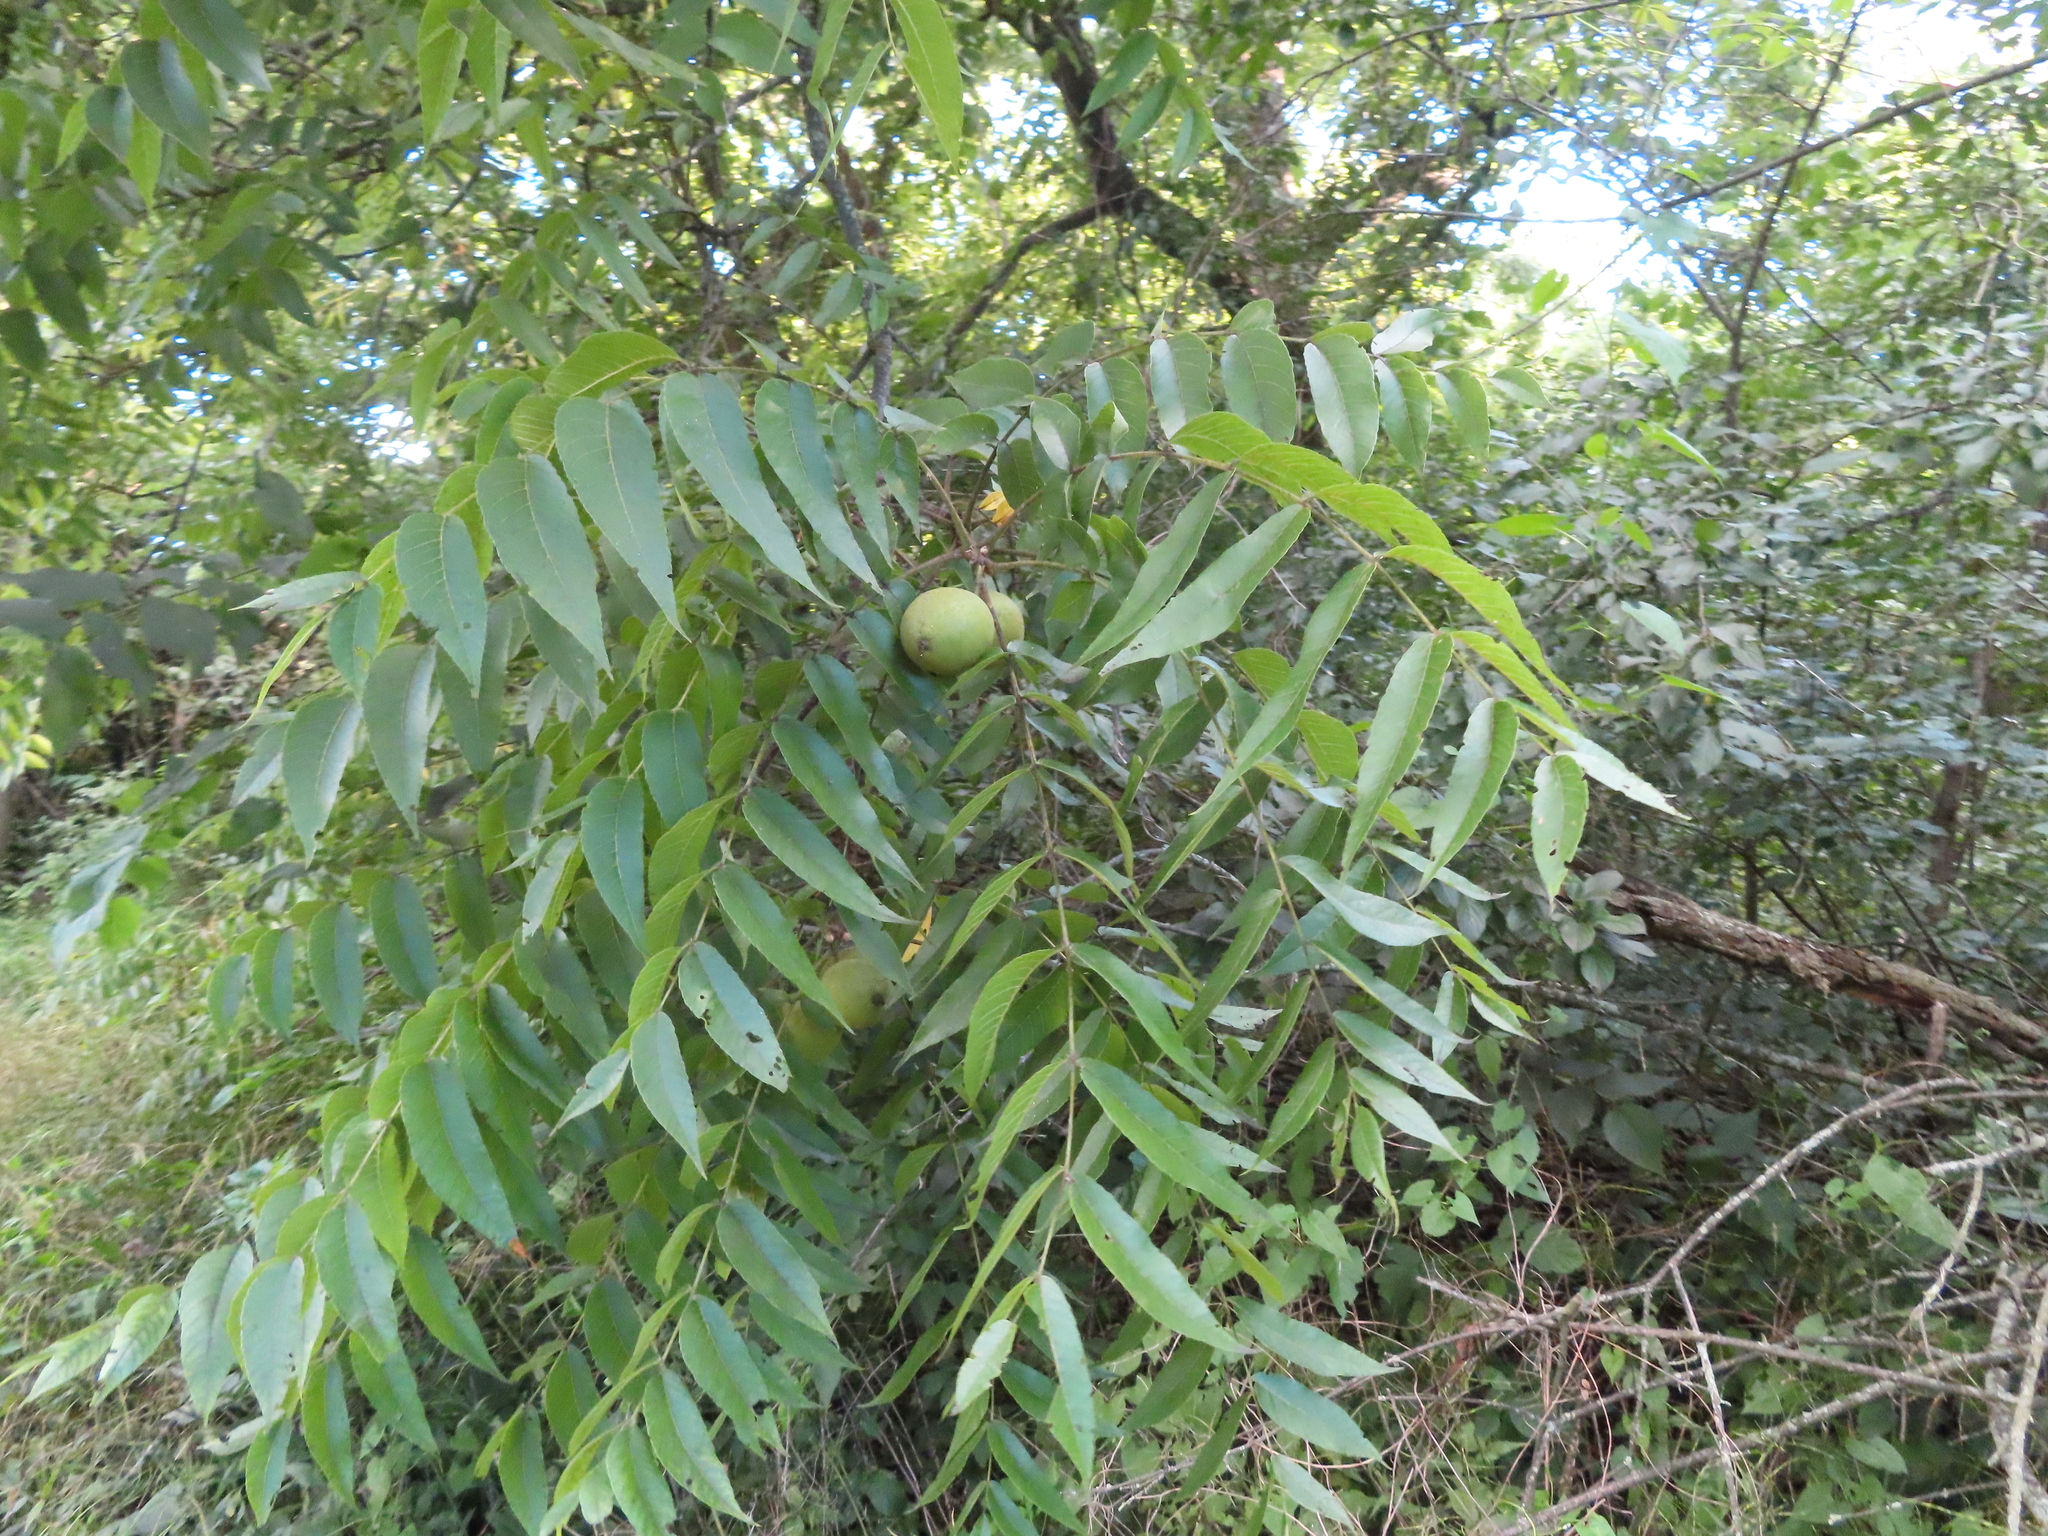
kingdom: Plantae
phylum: Tracheophyta
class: Magnoliopsida
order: Fagales
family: Juglandaceae
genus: Juglans
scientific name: Juglans nigra
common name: Black walnut
